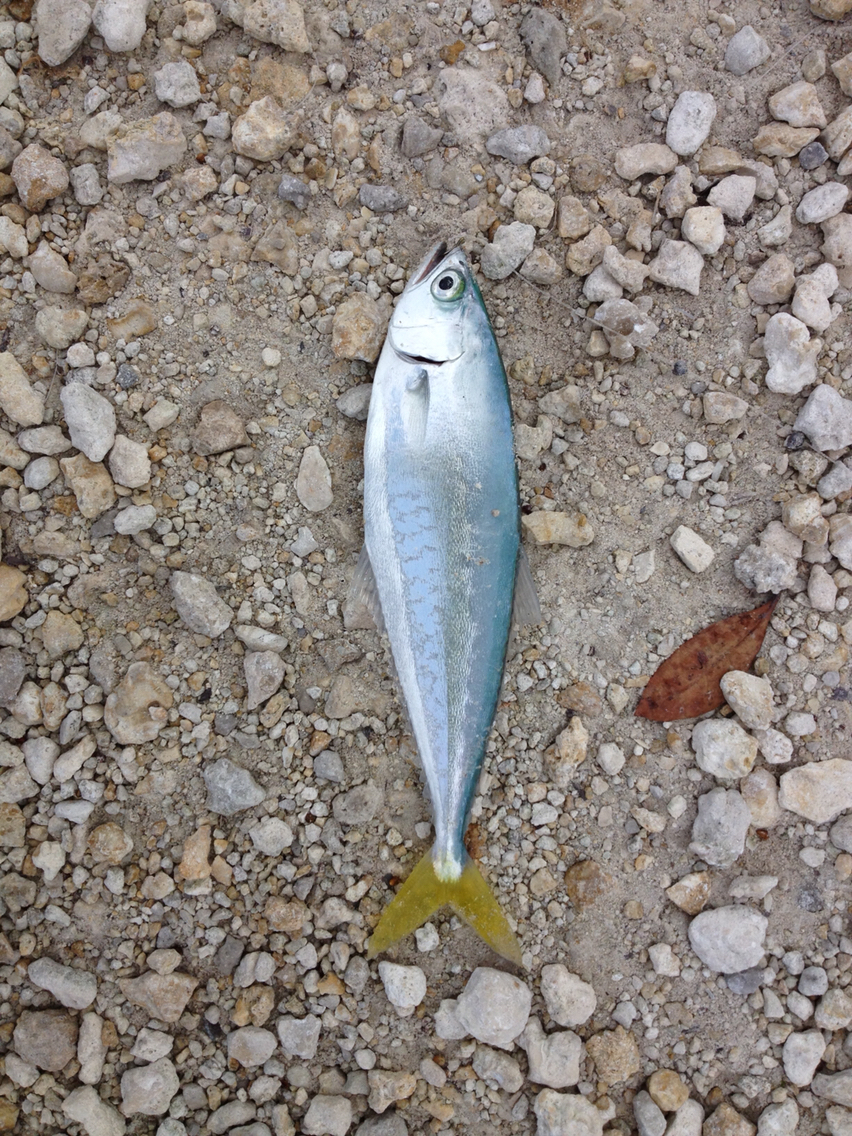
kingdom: Animalia
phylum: Chordata
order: Perciformes
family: Carangidae
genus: Oligoplites
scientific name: Oligoplites saurus
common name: Leatherjacket
